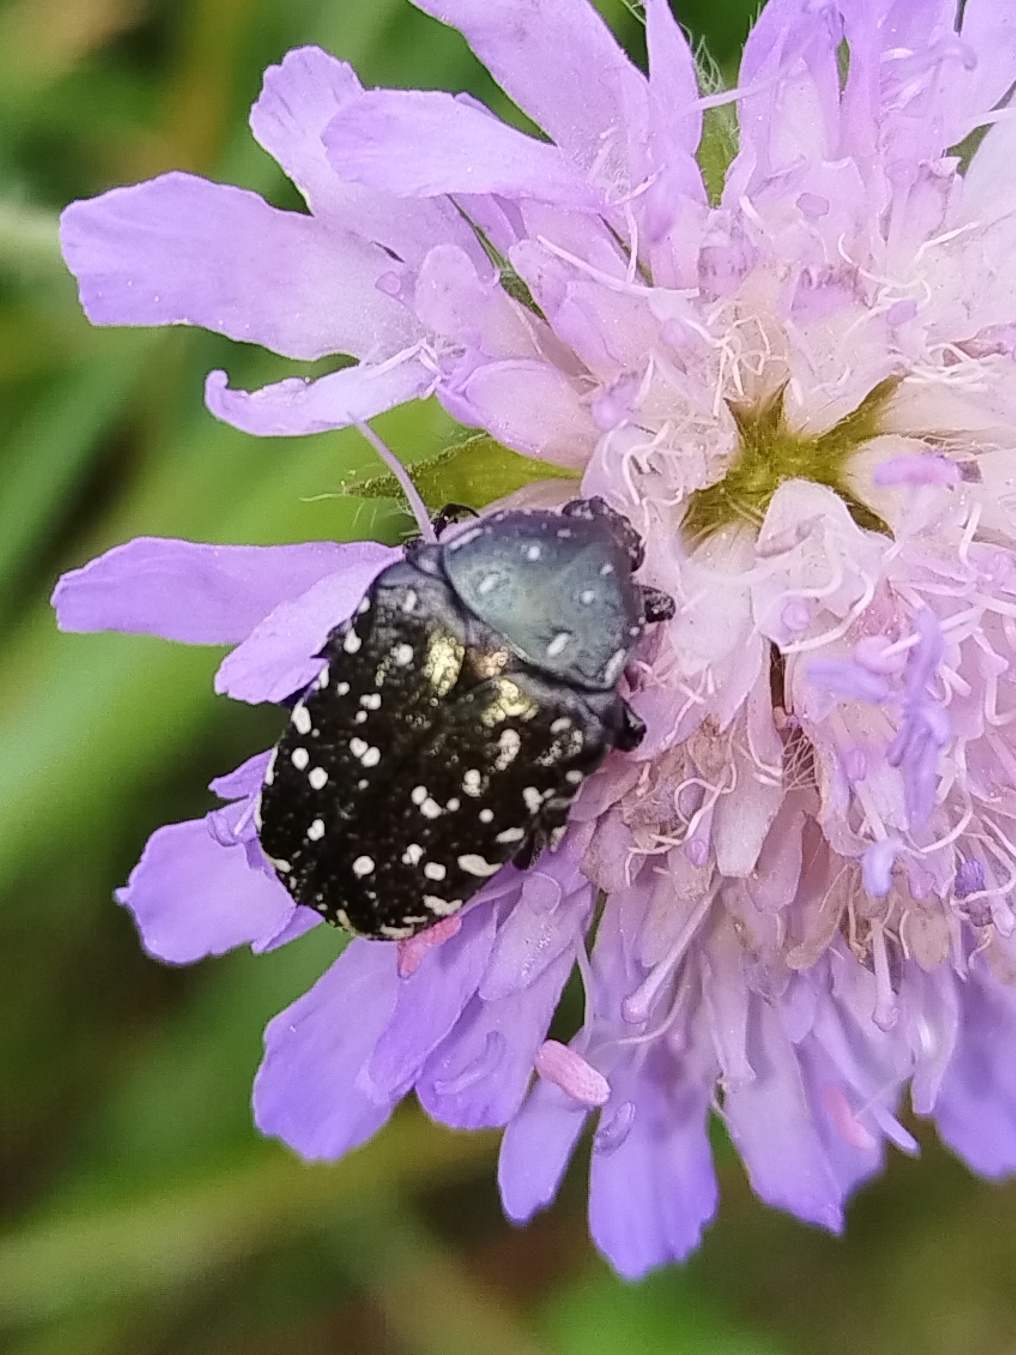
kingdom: Animalia
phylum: Arthropoda
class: Insecta
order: Coleoptera
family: Scarabaeidae
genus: Oxythyrea
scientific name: Oxythyrea funesta
